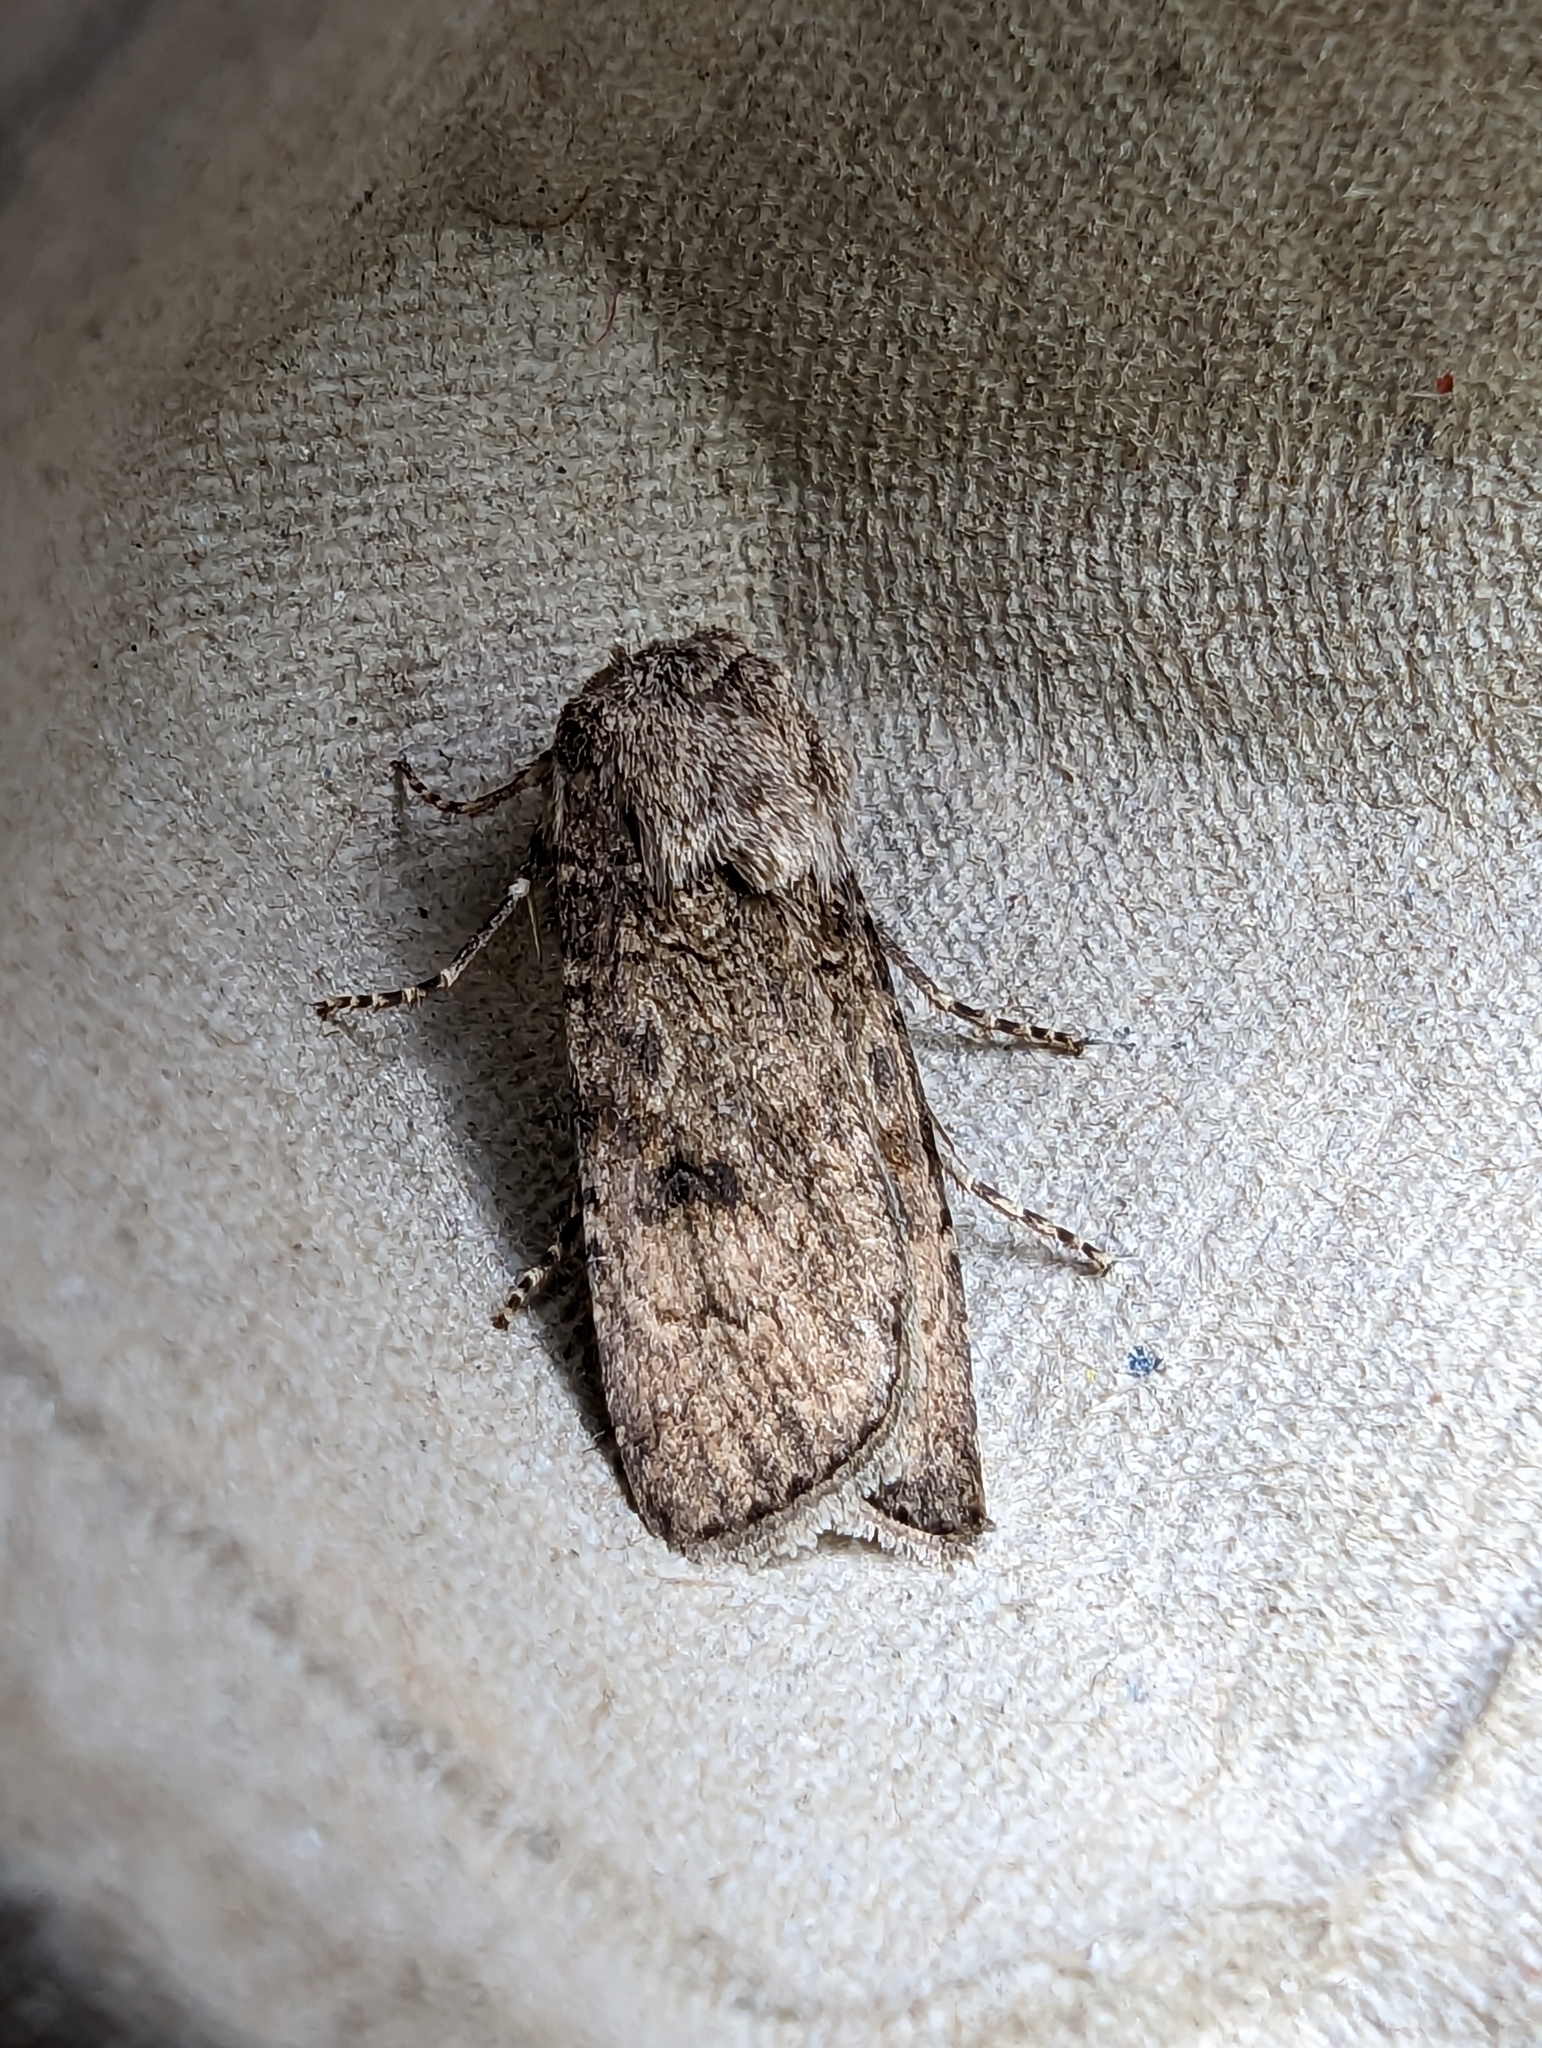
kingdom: Animalia
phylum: Arthropoda
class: Insecta
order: Lepidoptera
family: Noctuidae
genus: Agrotis
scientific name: Agrotis segetum
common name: Turnip moth
